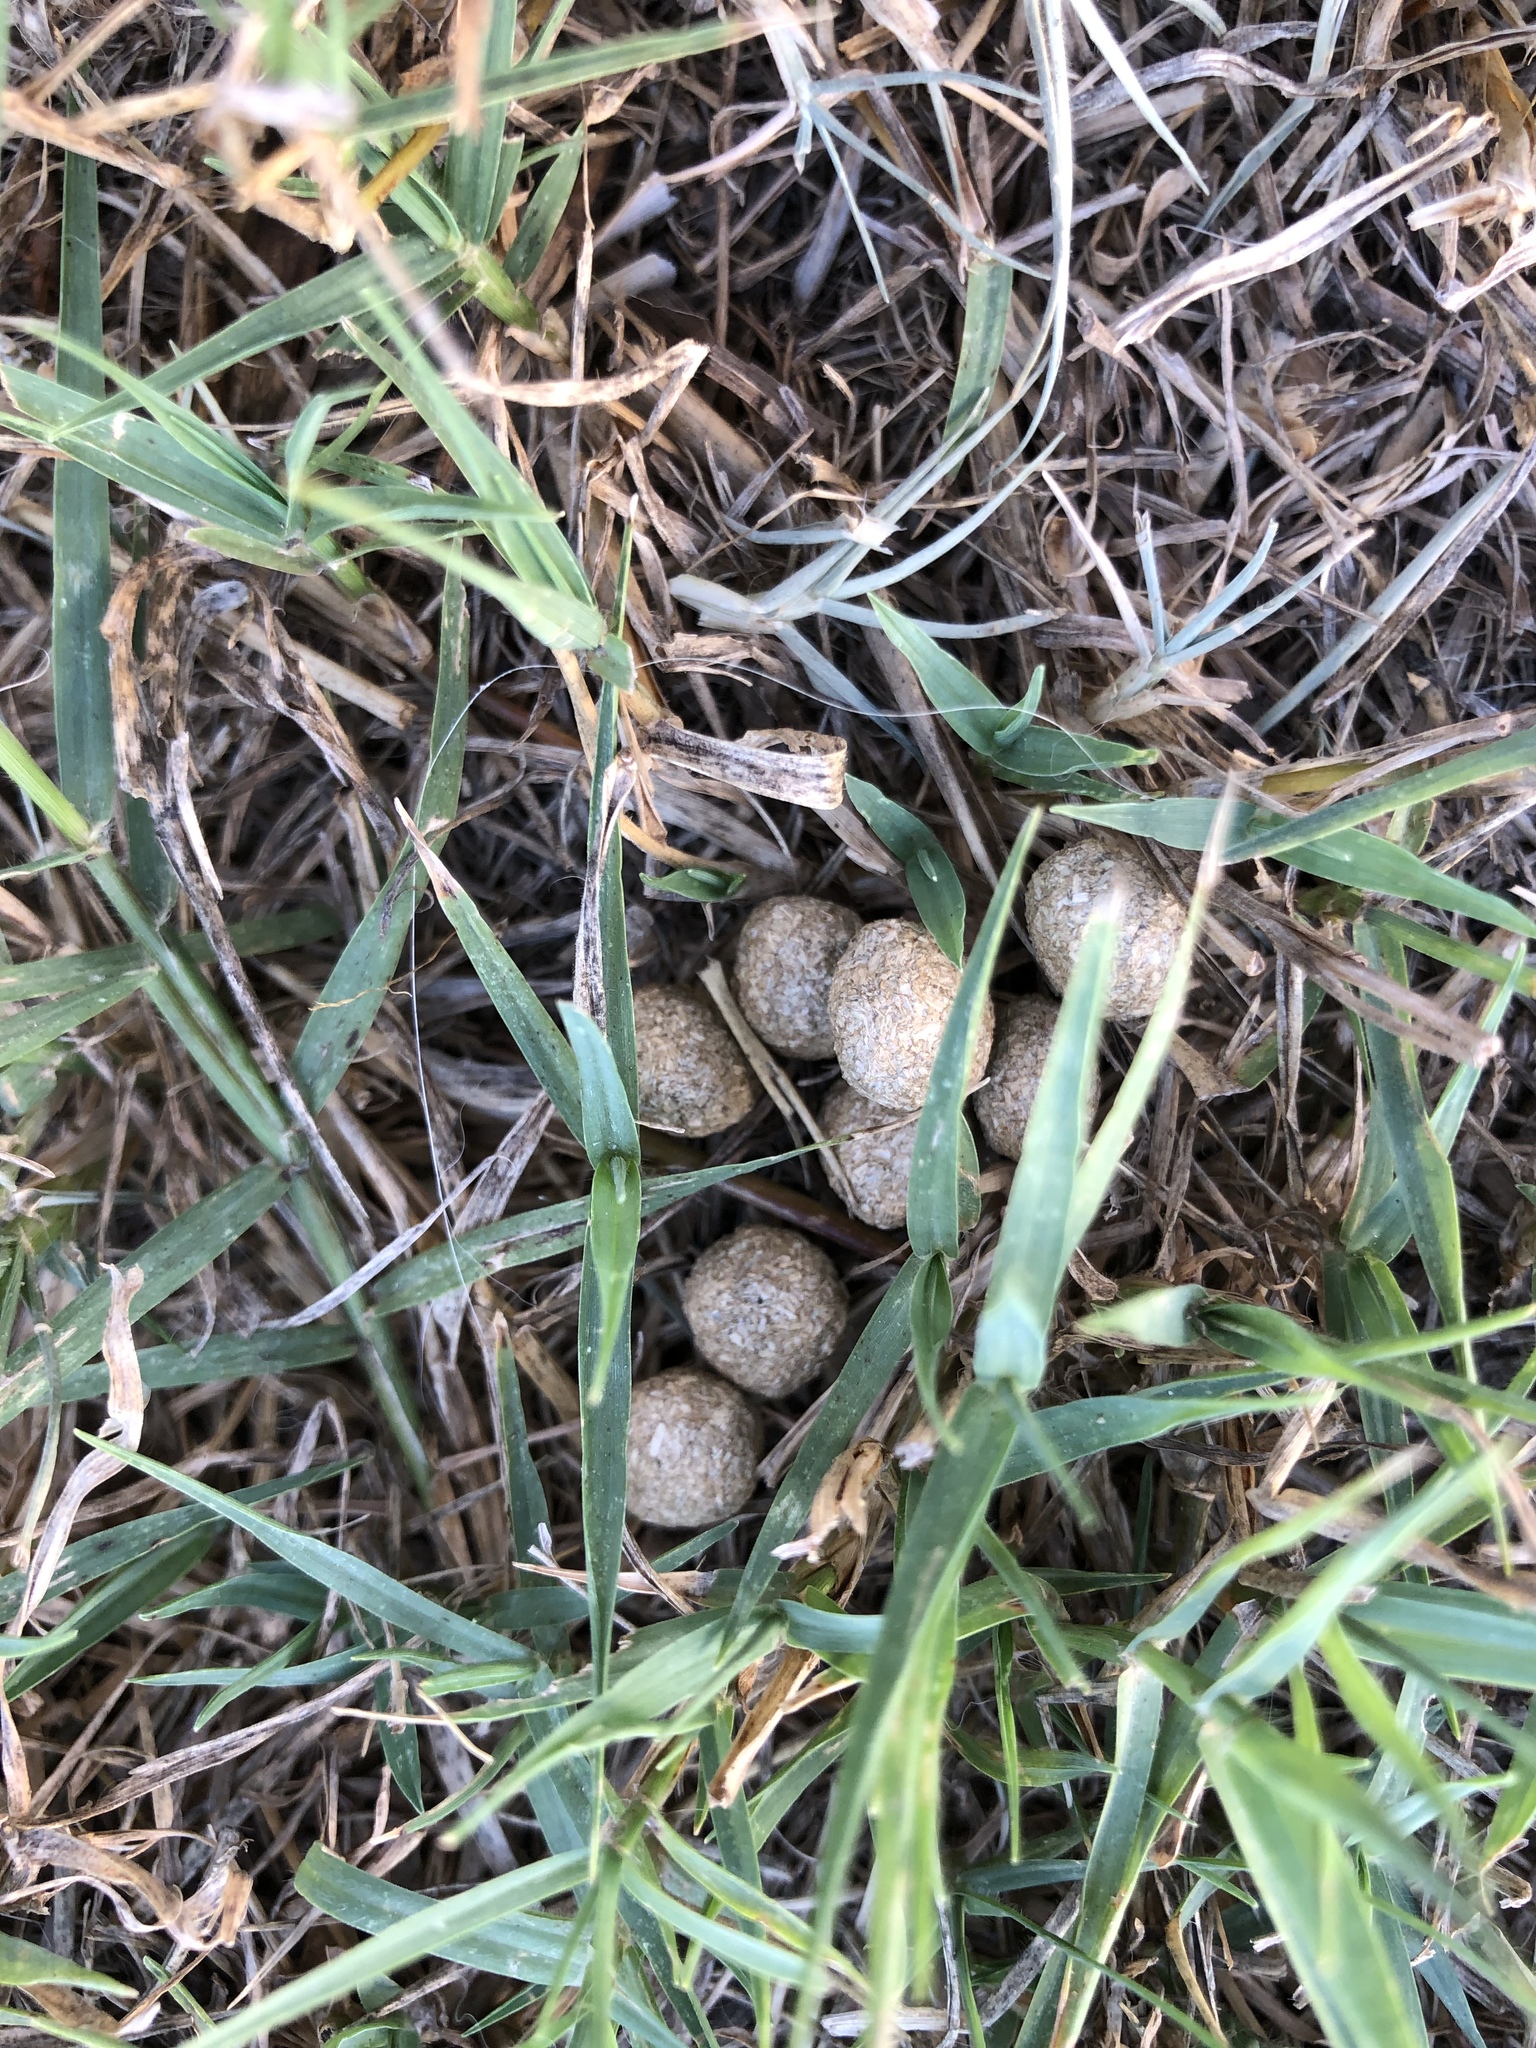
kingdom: Animalia
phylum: Chordata
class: Mammalia
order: Lagomorpha
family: Leporidae
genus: Sylvilagus
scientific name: Sylvilagus floridanus
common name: Eastern cottontail
